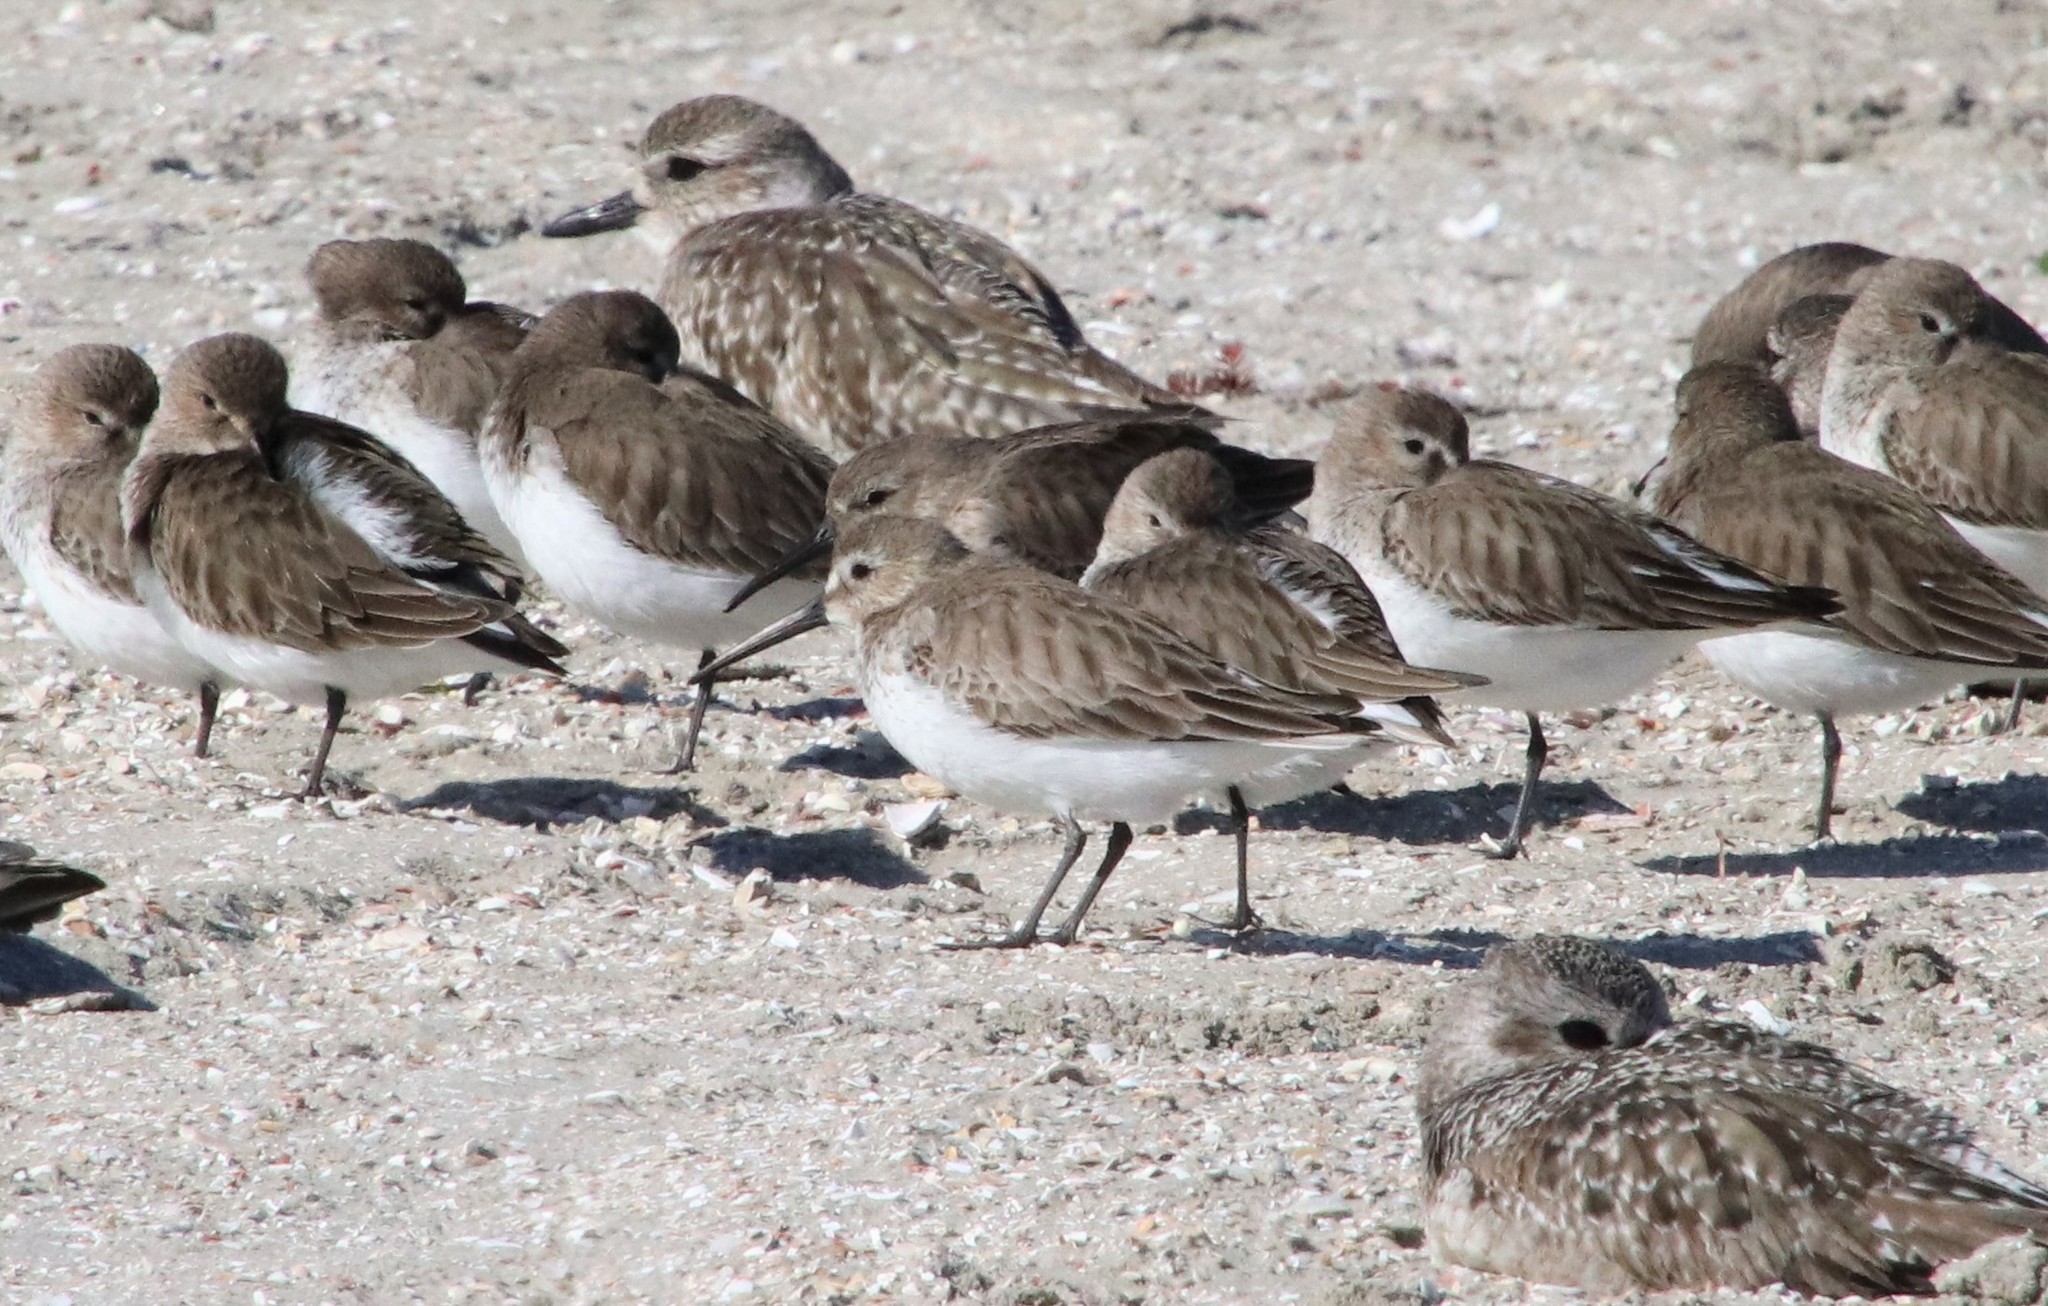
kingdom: Animalia
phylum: Chordata
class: Aves
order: Charadriiformes
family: Scolopacidae
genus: Calidris
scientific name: Calidris alpina
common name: Dunlin
